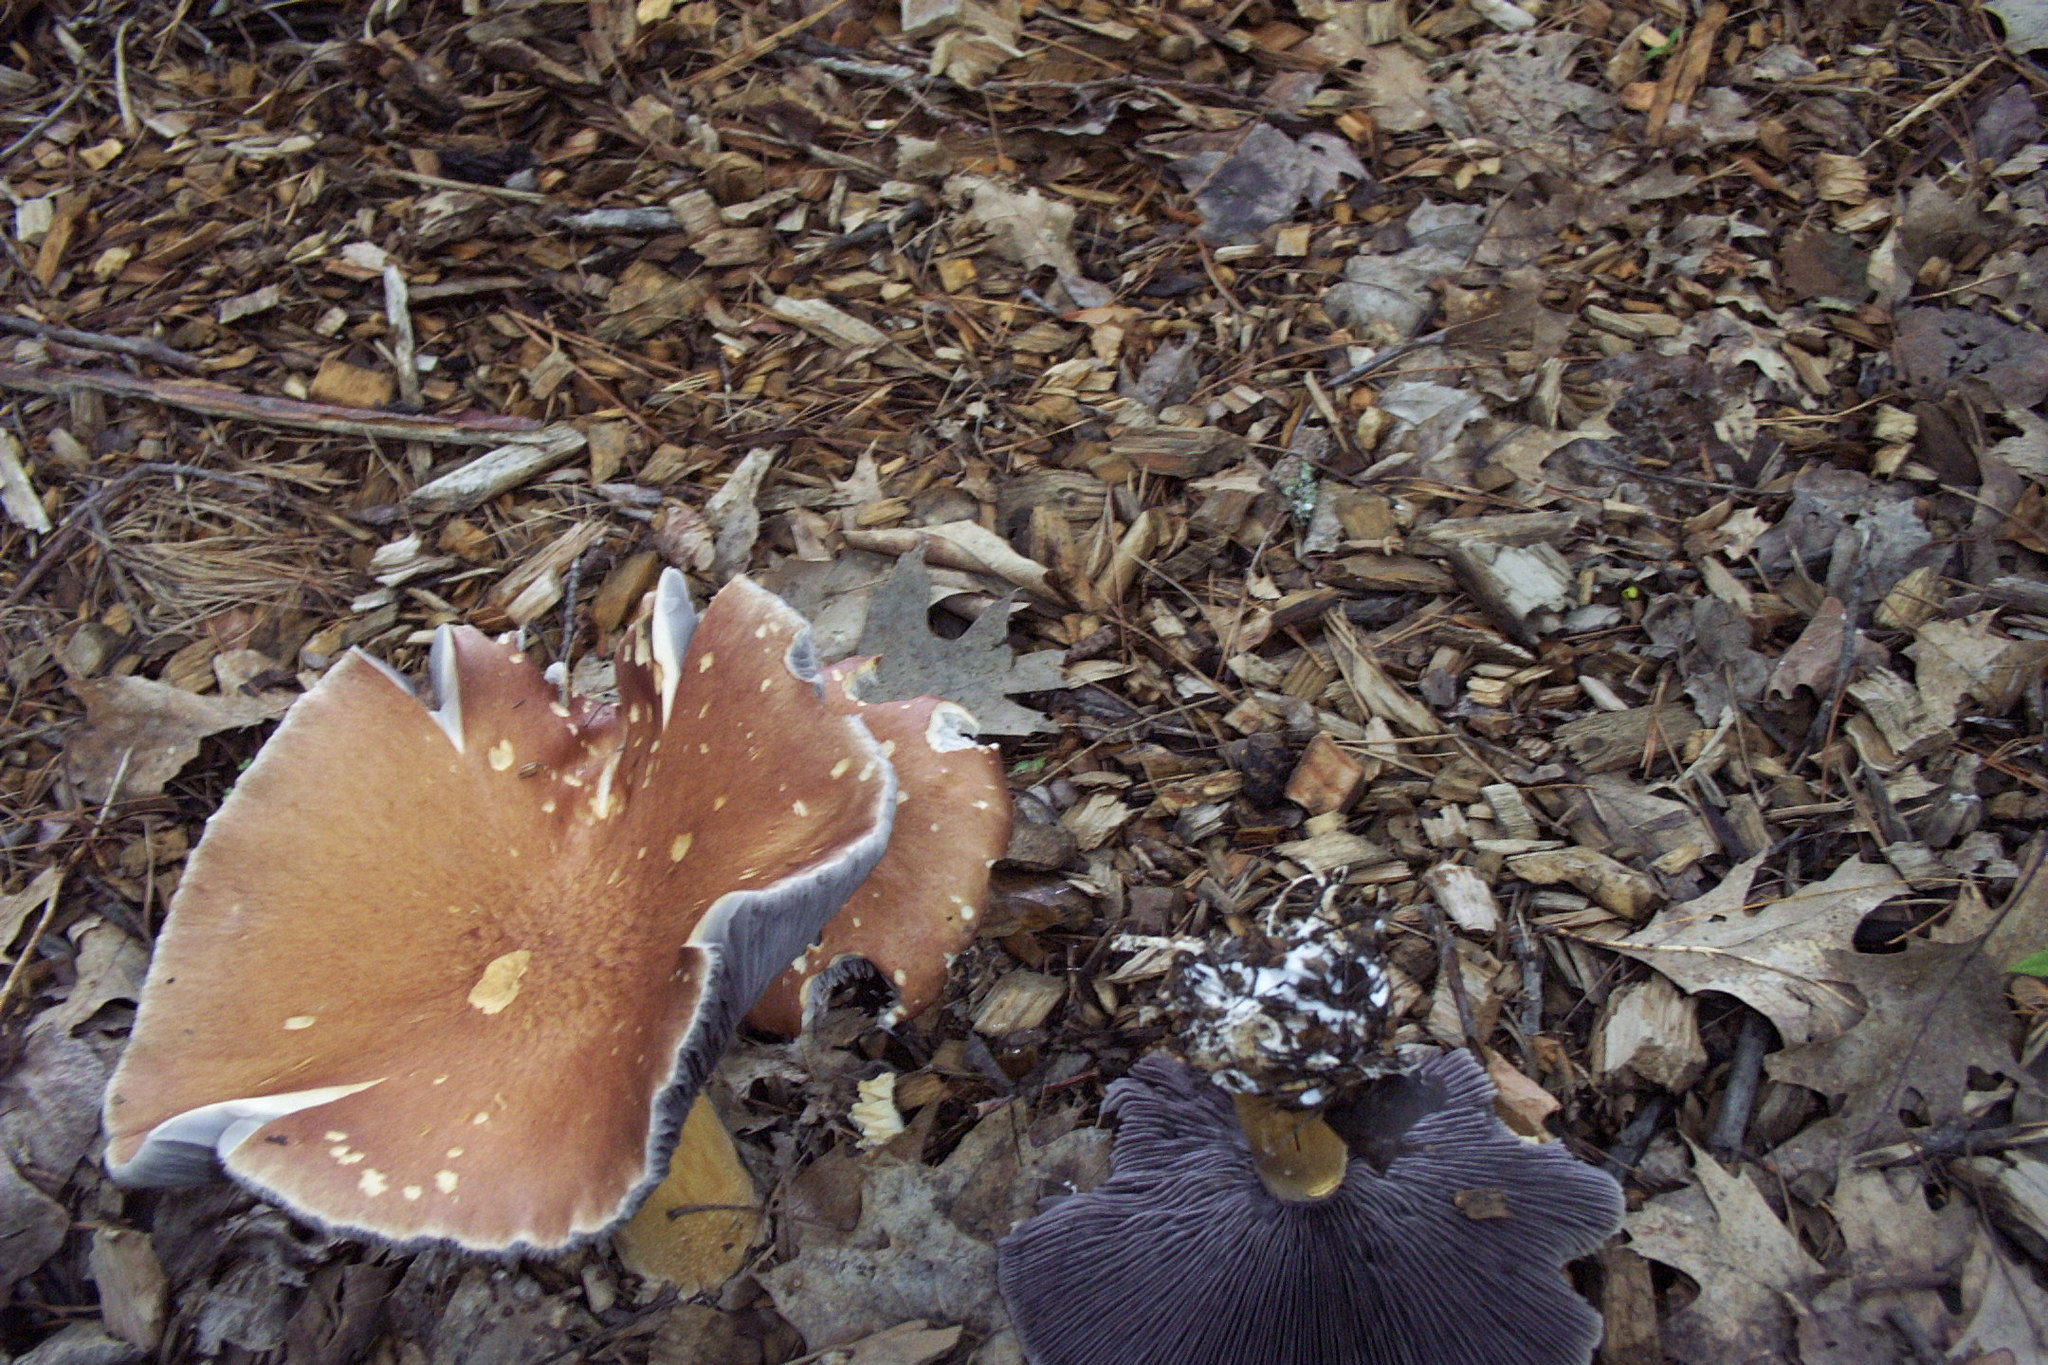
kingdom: Fungi
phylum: Basidiomycota
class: Agaricomycetes
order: Agaricales
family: Strophariaceae
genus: Stropharia
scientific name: Stropharia rugosoannulata
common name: Wine roundhead
